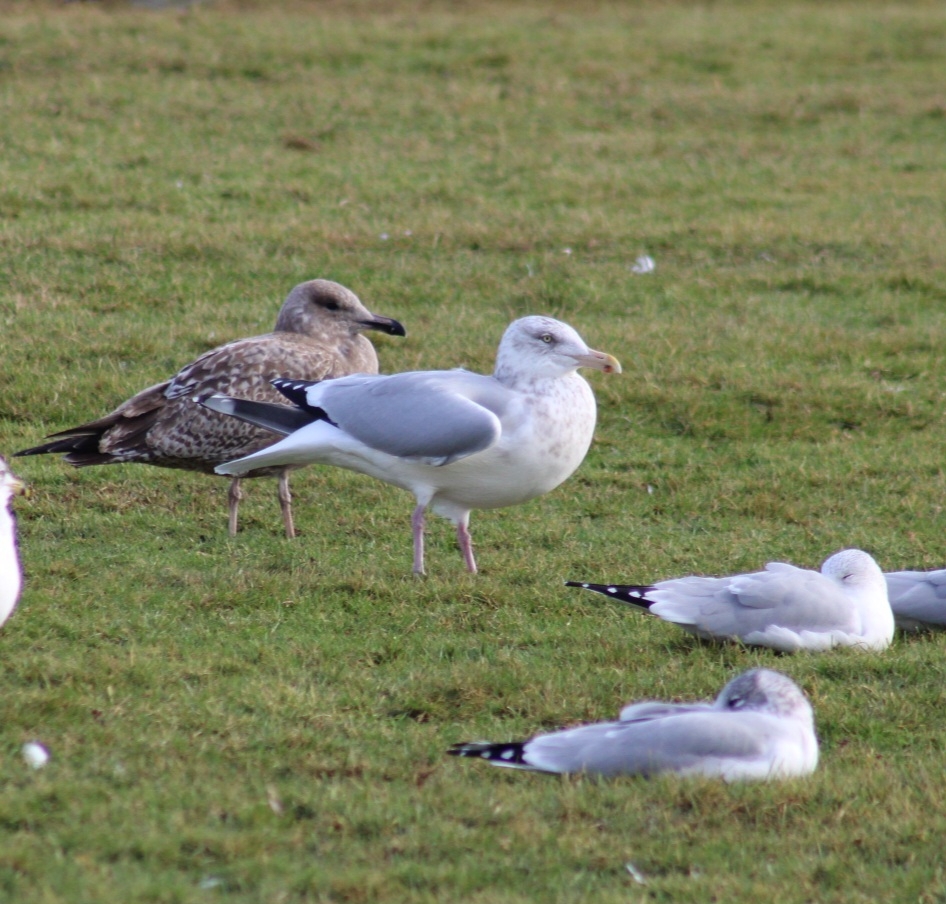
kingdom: Animalia
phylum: Chordata
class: Aves
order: Charadriiformes
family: Laridae
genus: Larus
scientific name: Larus argentatus
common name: Herring gull
